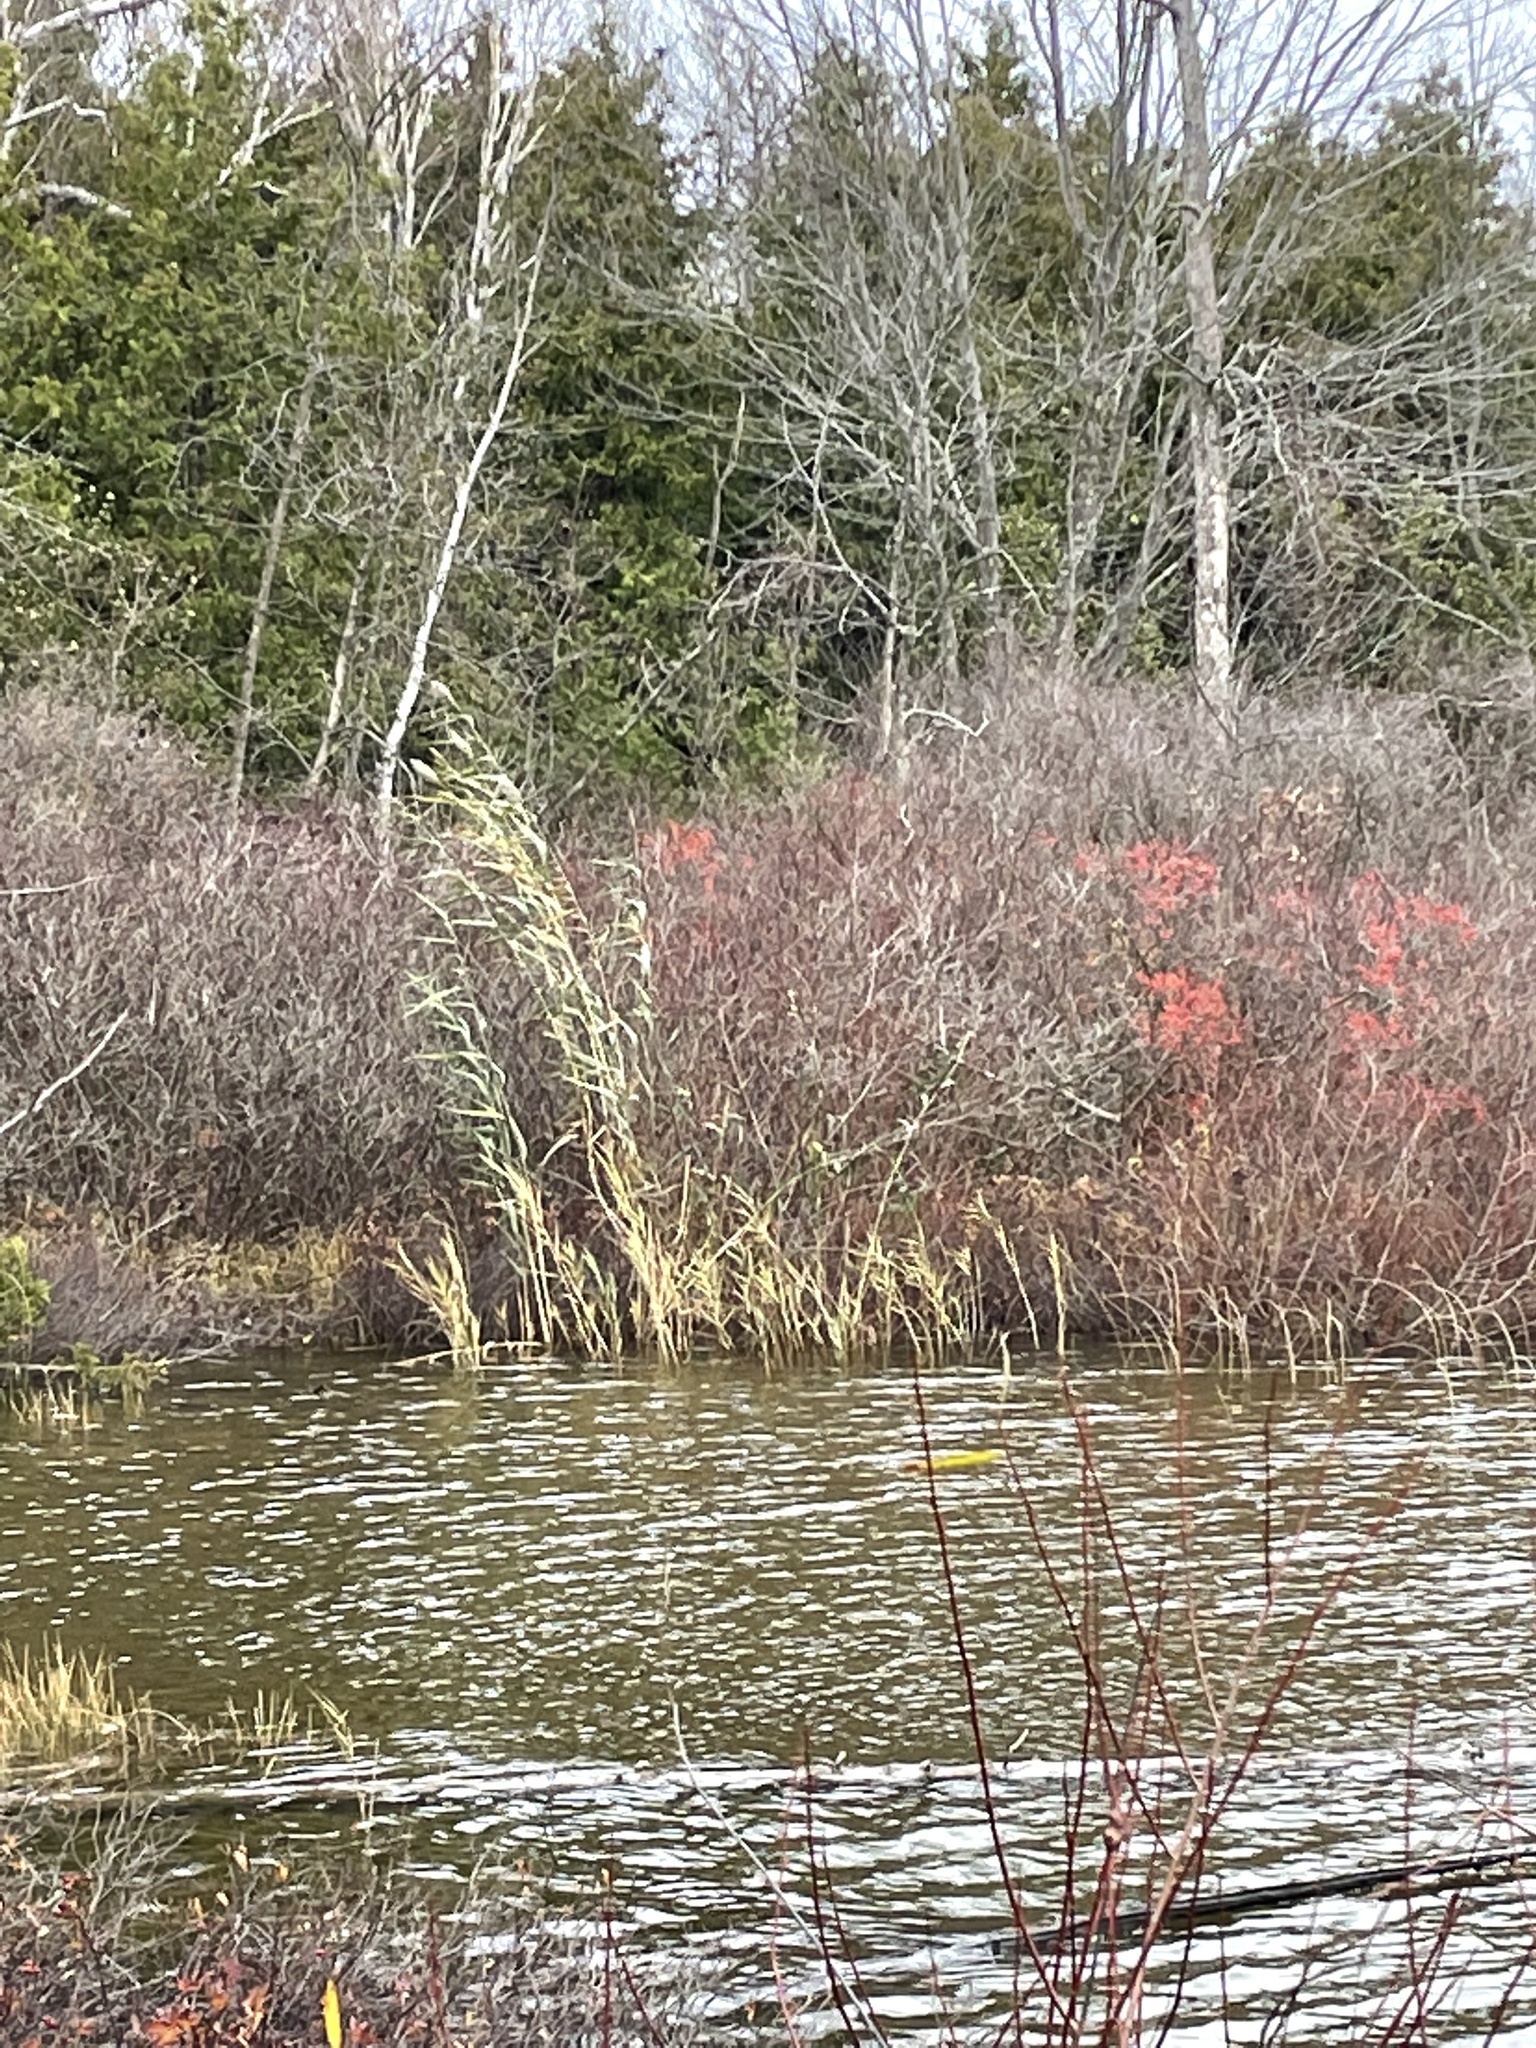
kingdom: Plantae
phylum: Tracheophyta
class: Liliopsida
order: Poales
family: Poaceae
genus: Phragmites
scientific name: Phragmites australis
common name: Common reed
